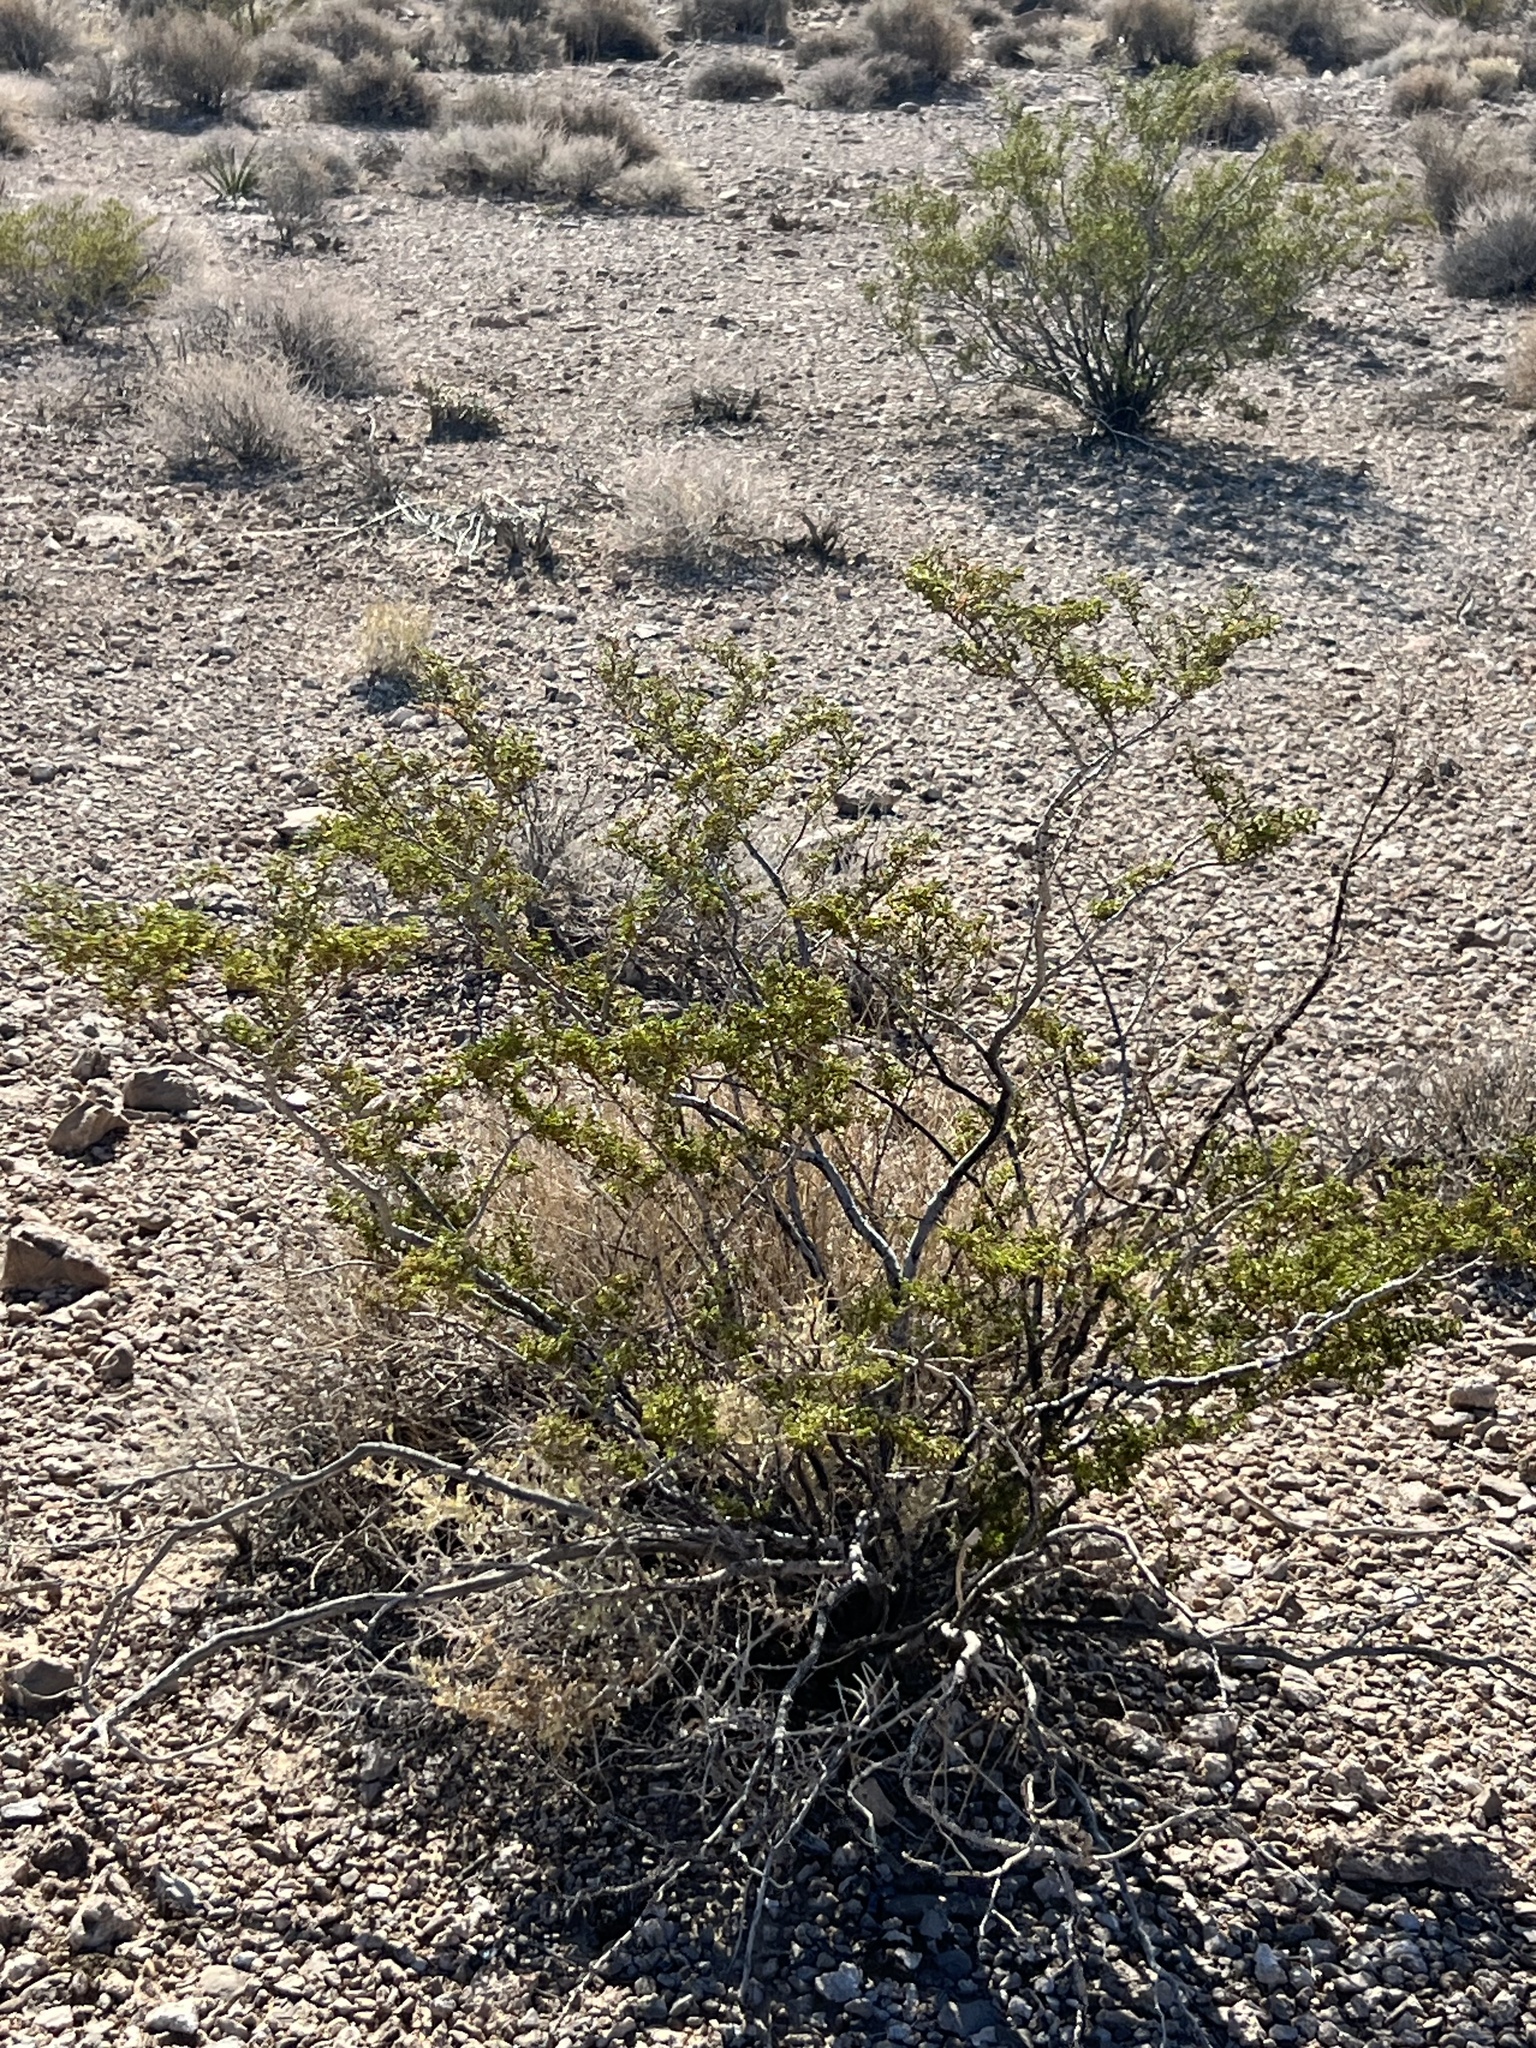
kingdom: Plantae
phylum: Tracheophyta
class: Magnoliopsida
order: Zygophyllales
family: Zygophyllaceae
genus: Larrea
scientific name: Larrea tridentata
